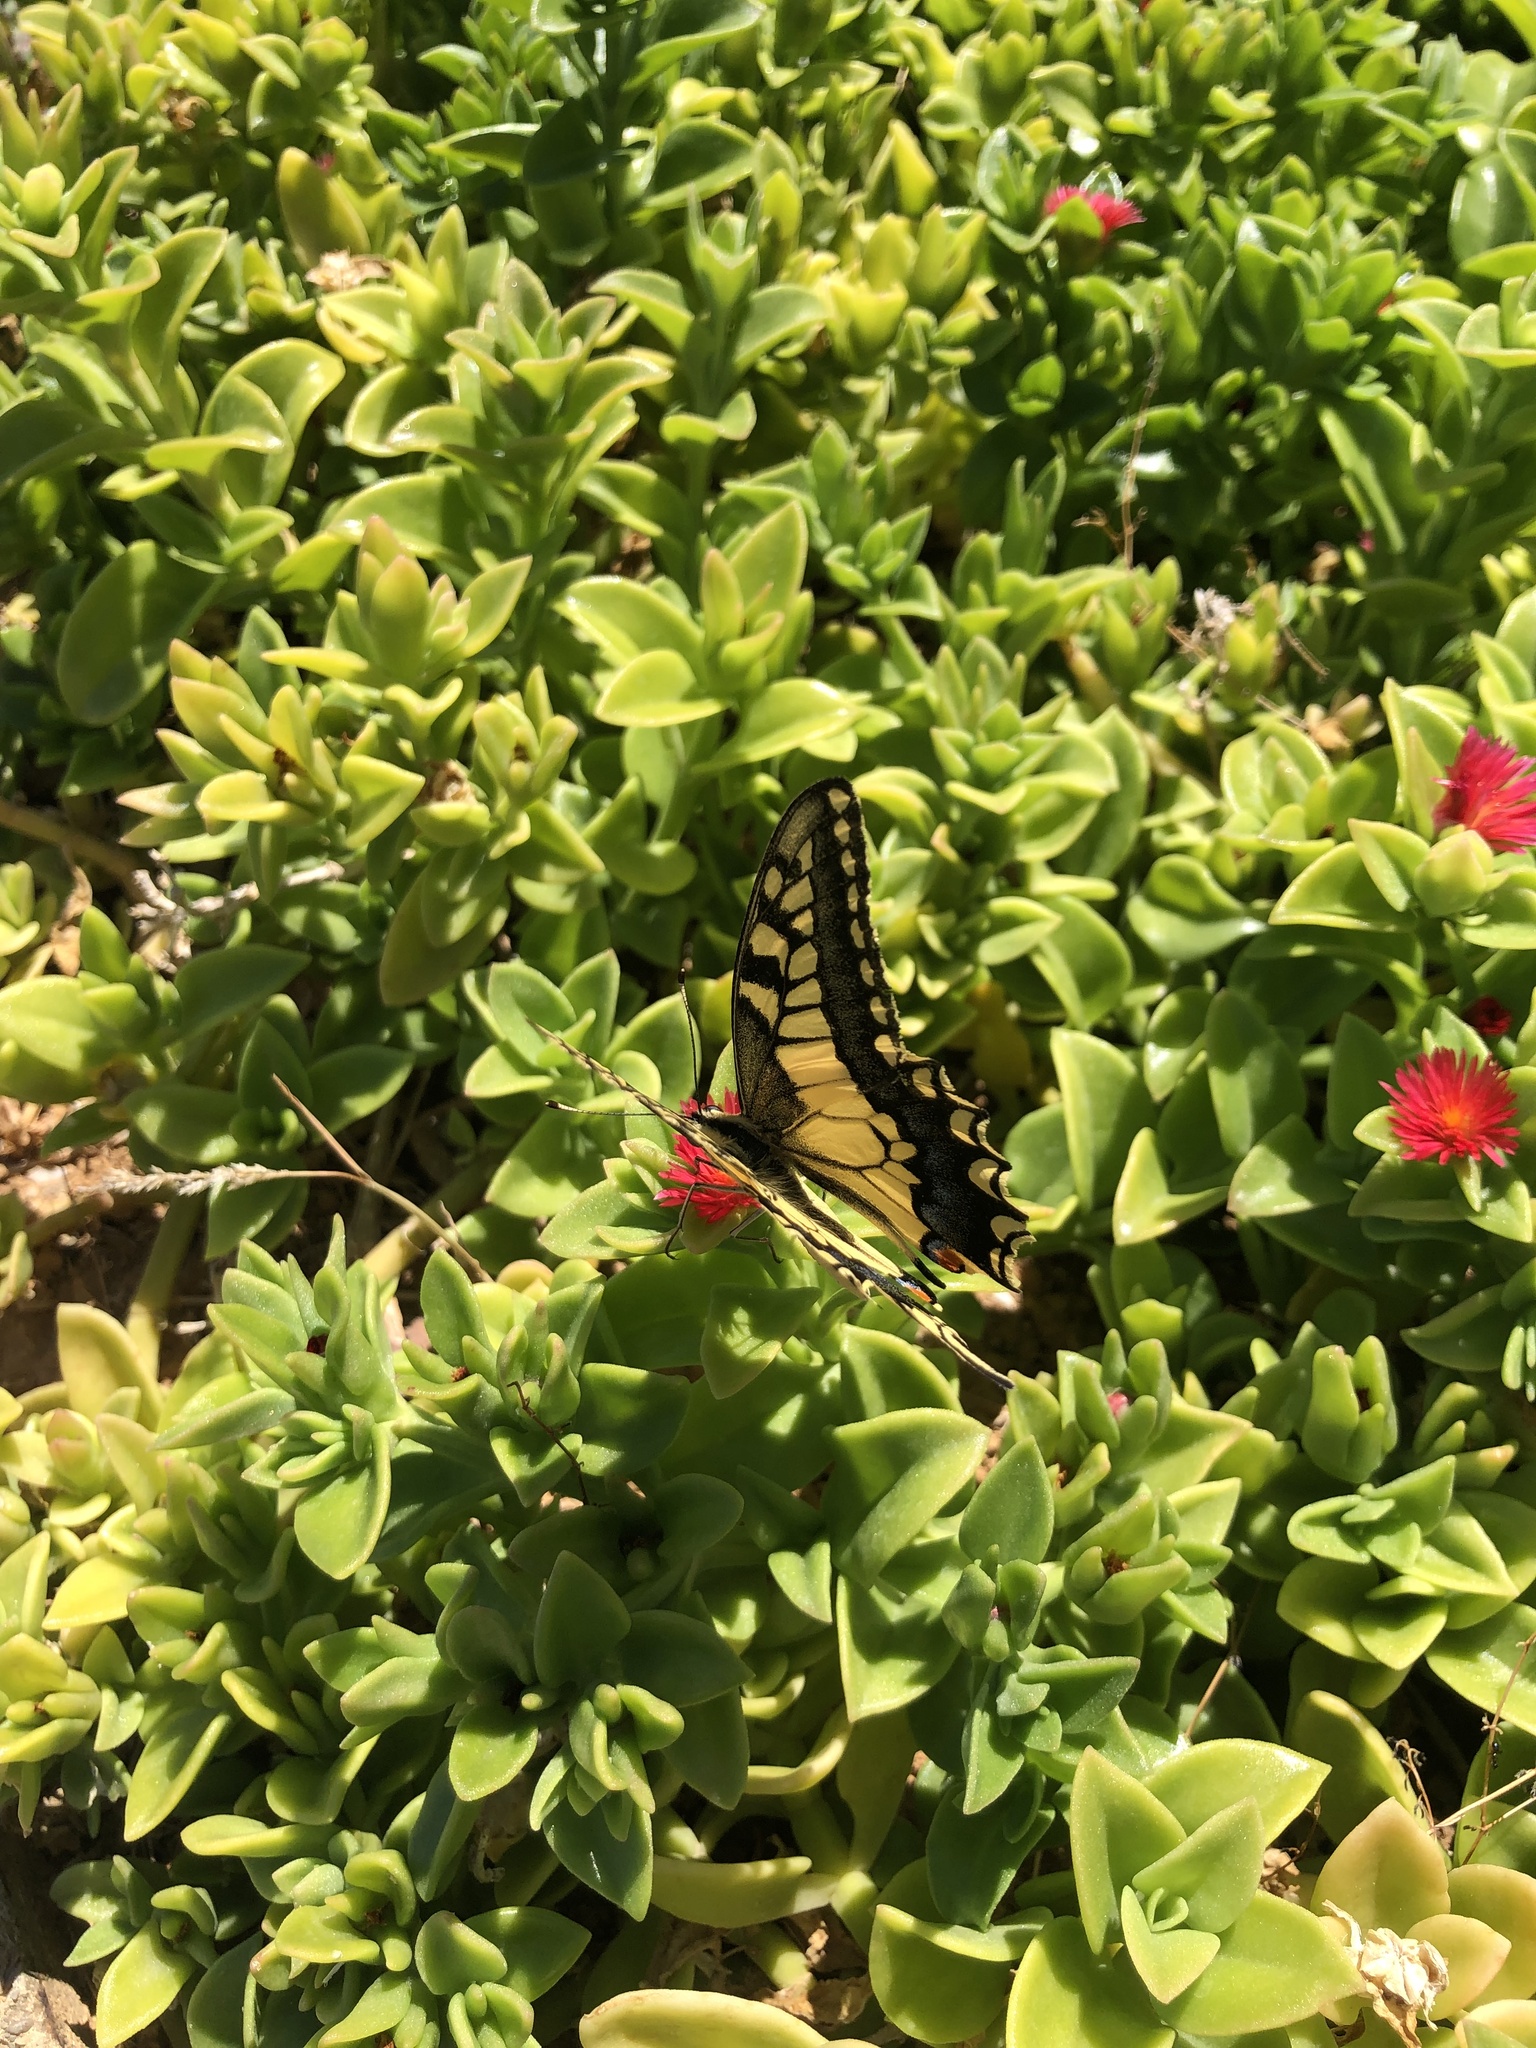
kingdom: Animalia
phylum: Arthropoda
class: Insecta
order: Lepidoptera
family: Papilionidae
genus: Papilio
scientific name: Papilio machaon
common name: Swallowtail
